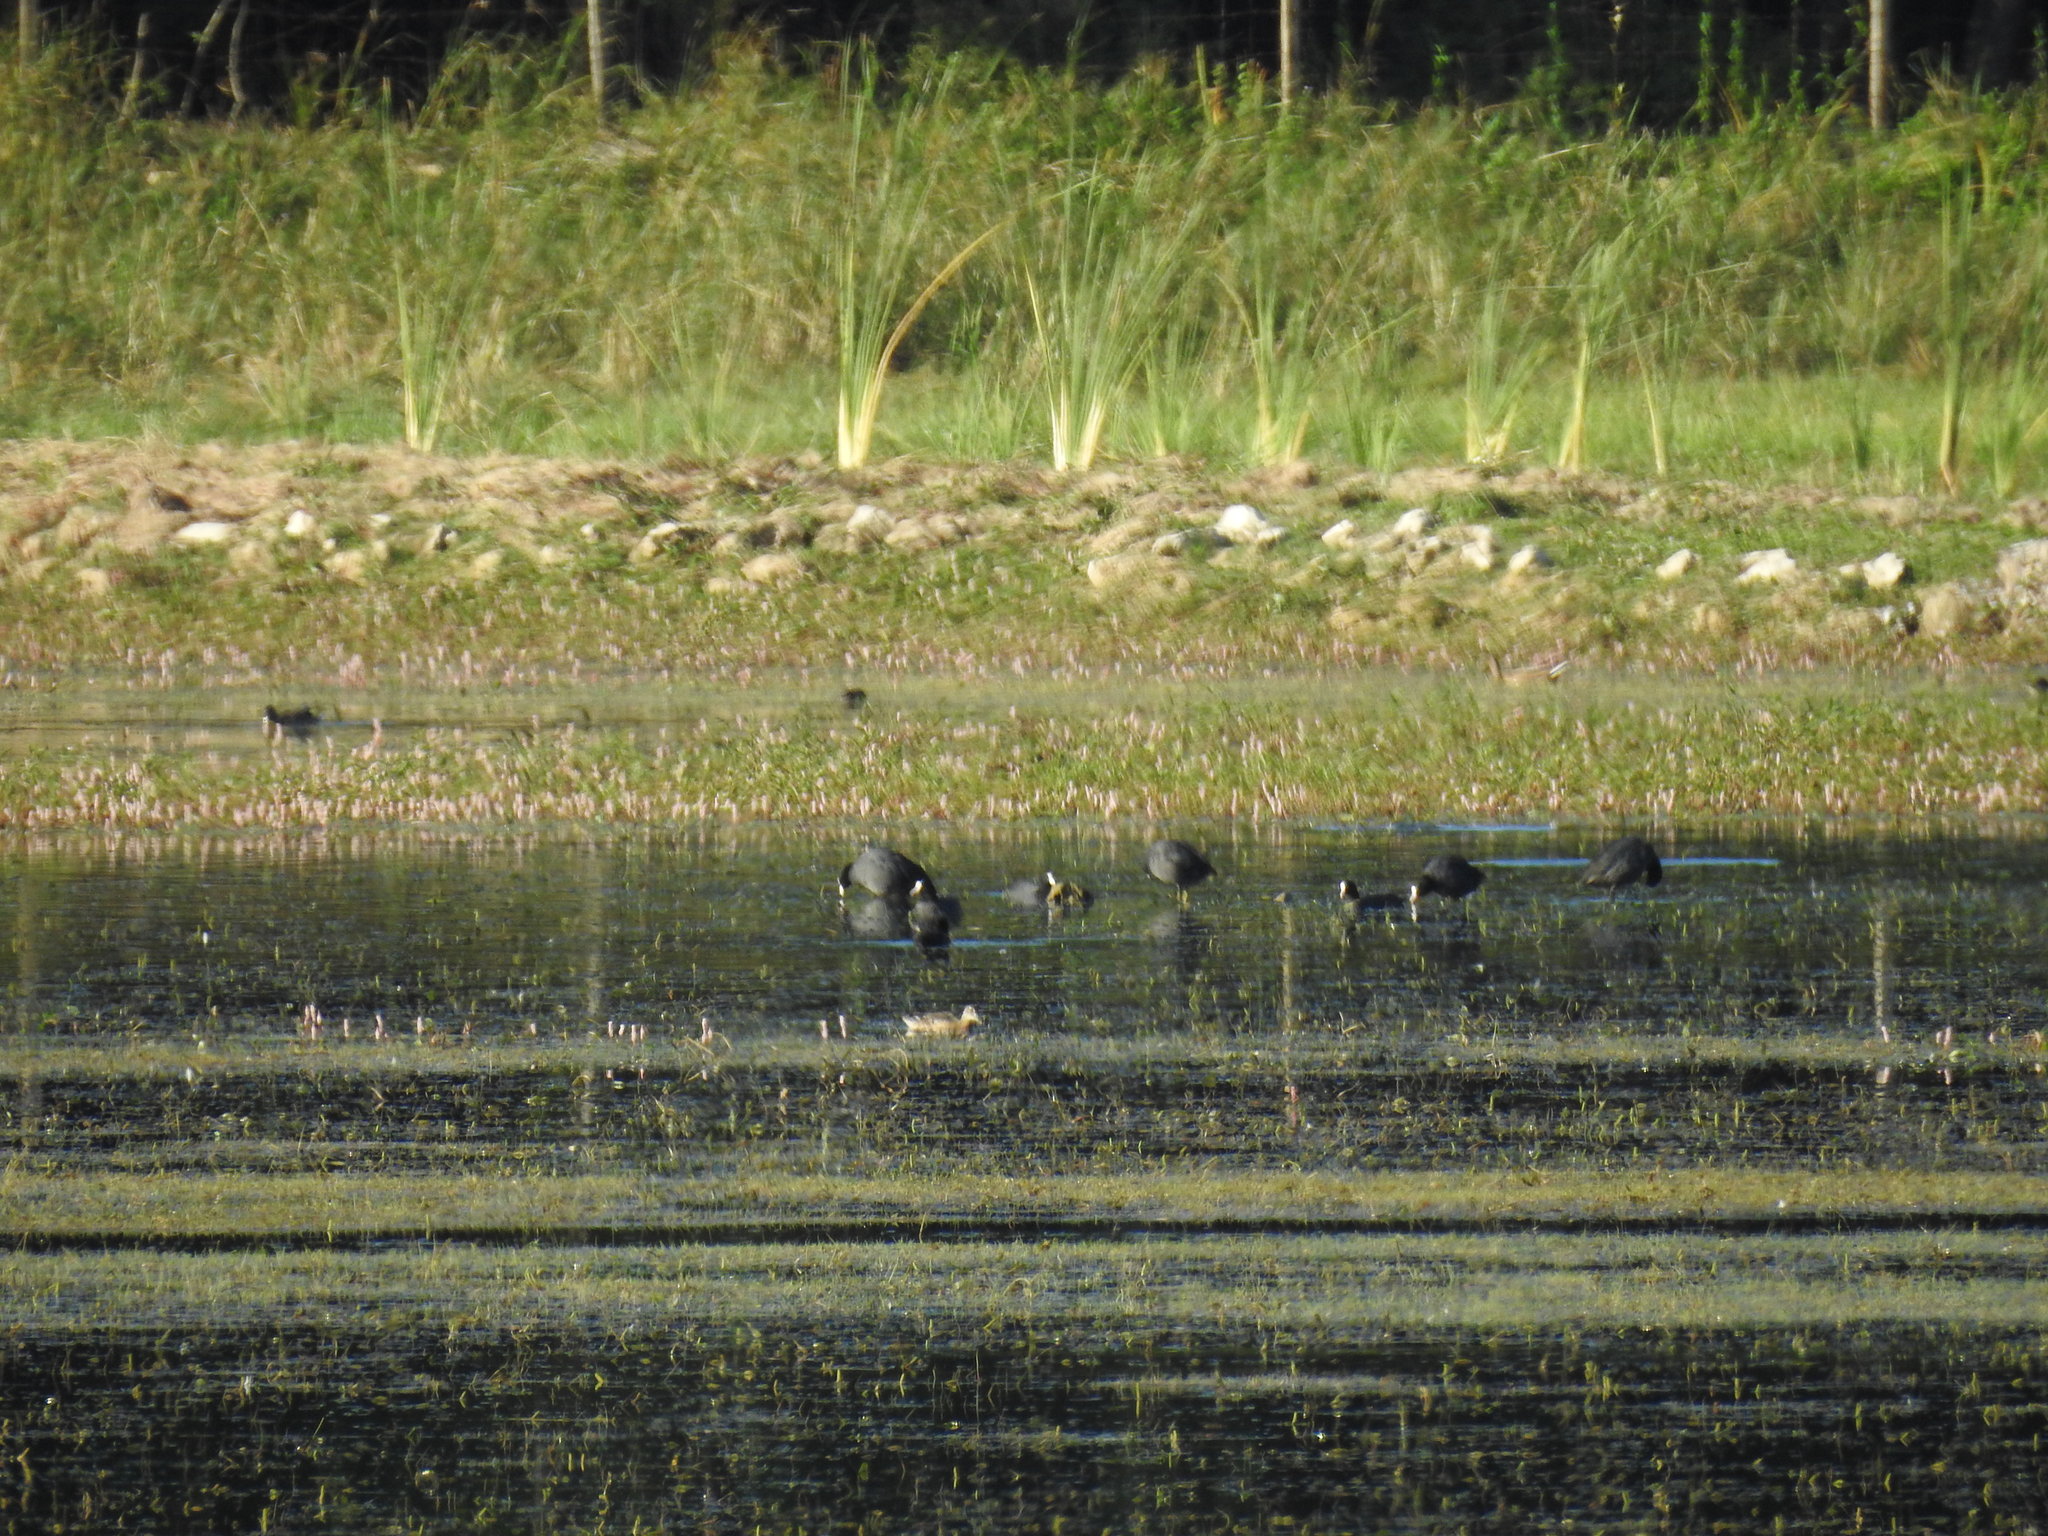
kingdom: Animalia
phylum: Chordata
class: Aves
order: Anseriformes
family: Anatidae
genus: Spatula
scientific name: Spatula querquedula
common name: Garganey
